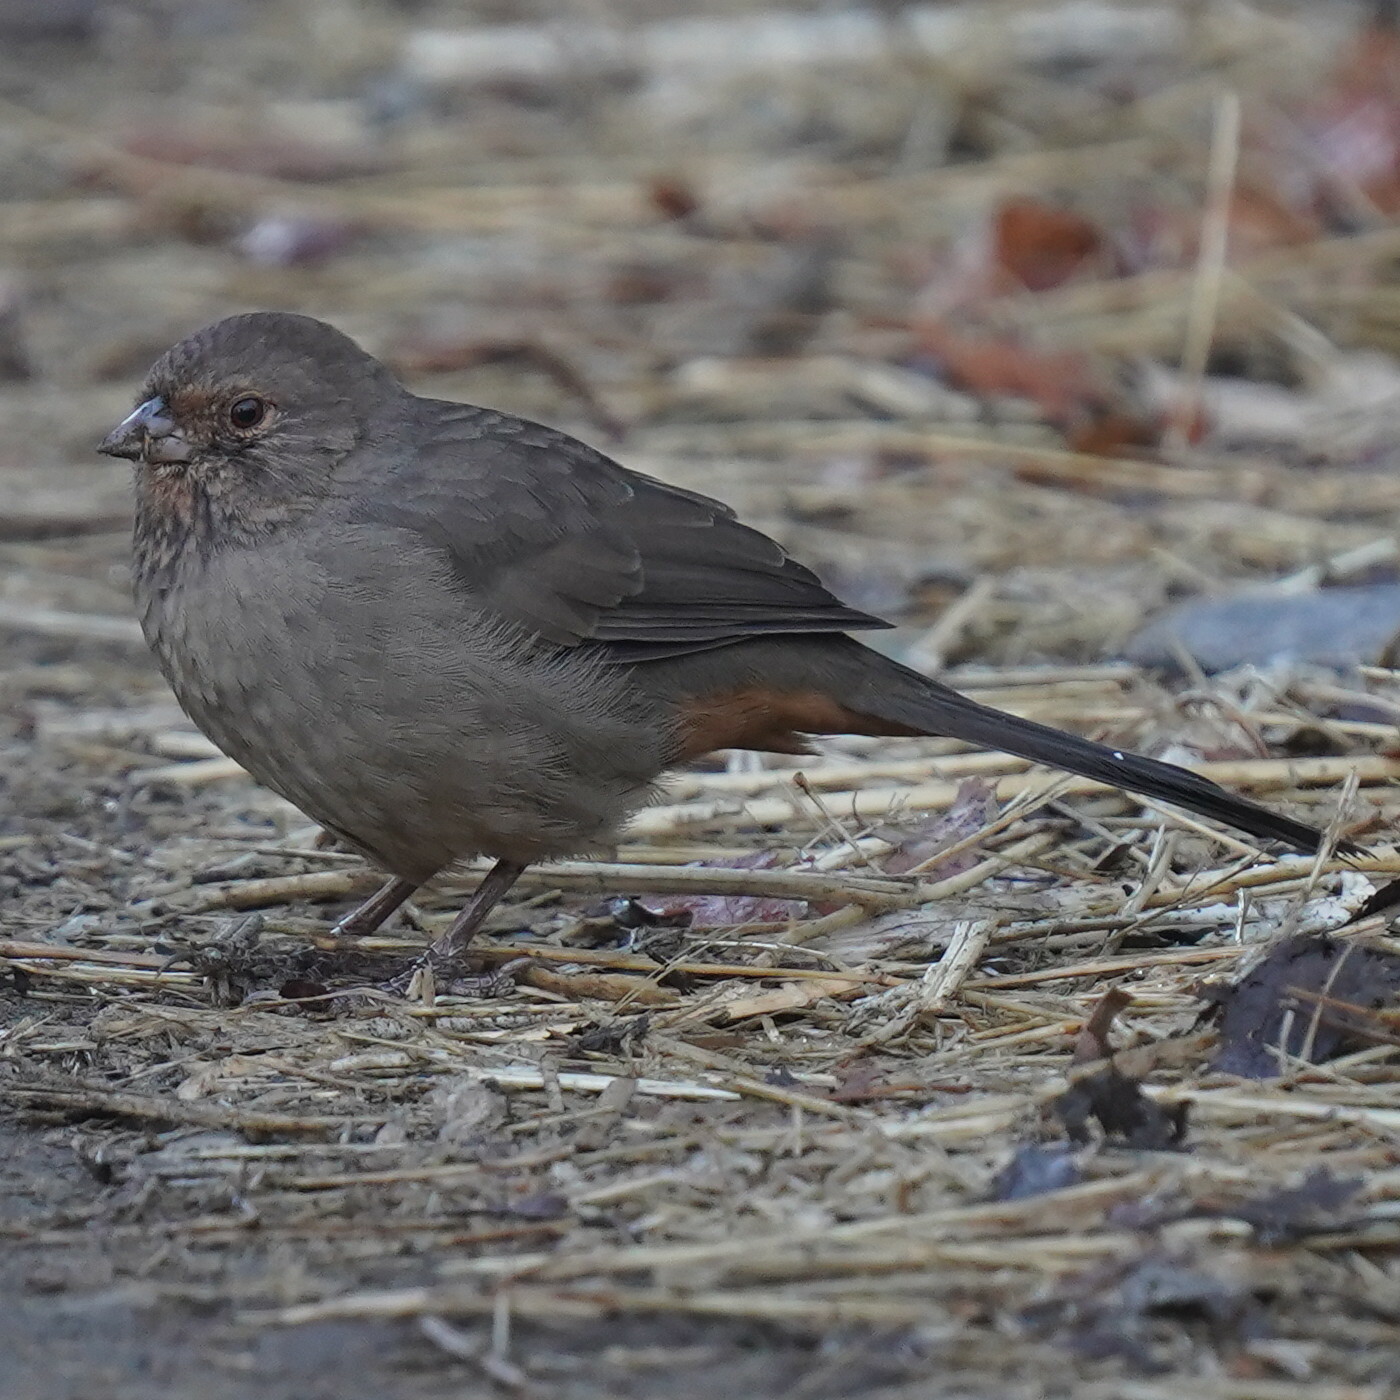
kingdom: Animalia
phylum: Chordata
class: Aves
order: Passeriformes
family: Passerellidae
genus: Melozone
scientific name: Melozone crissalis
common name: California towhee
